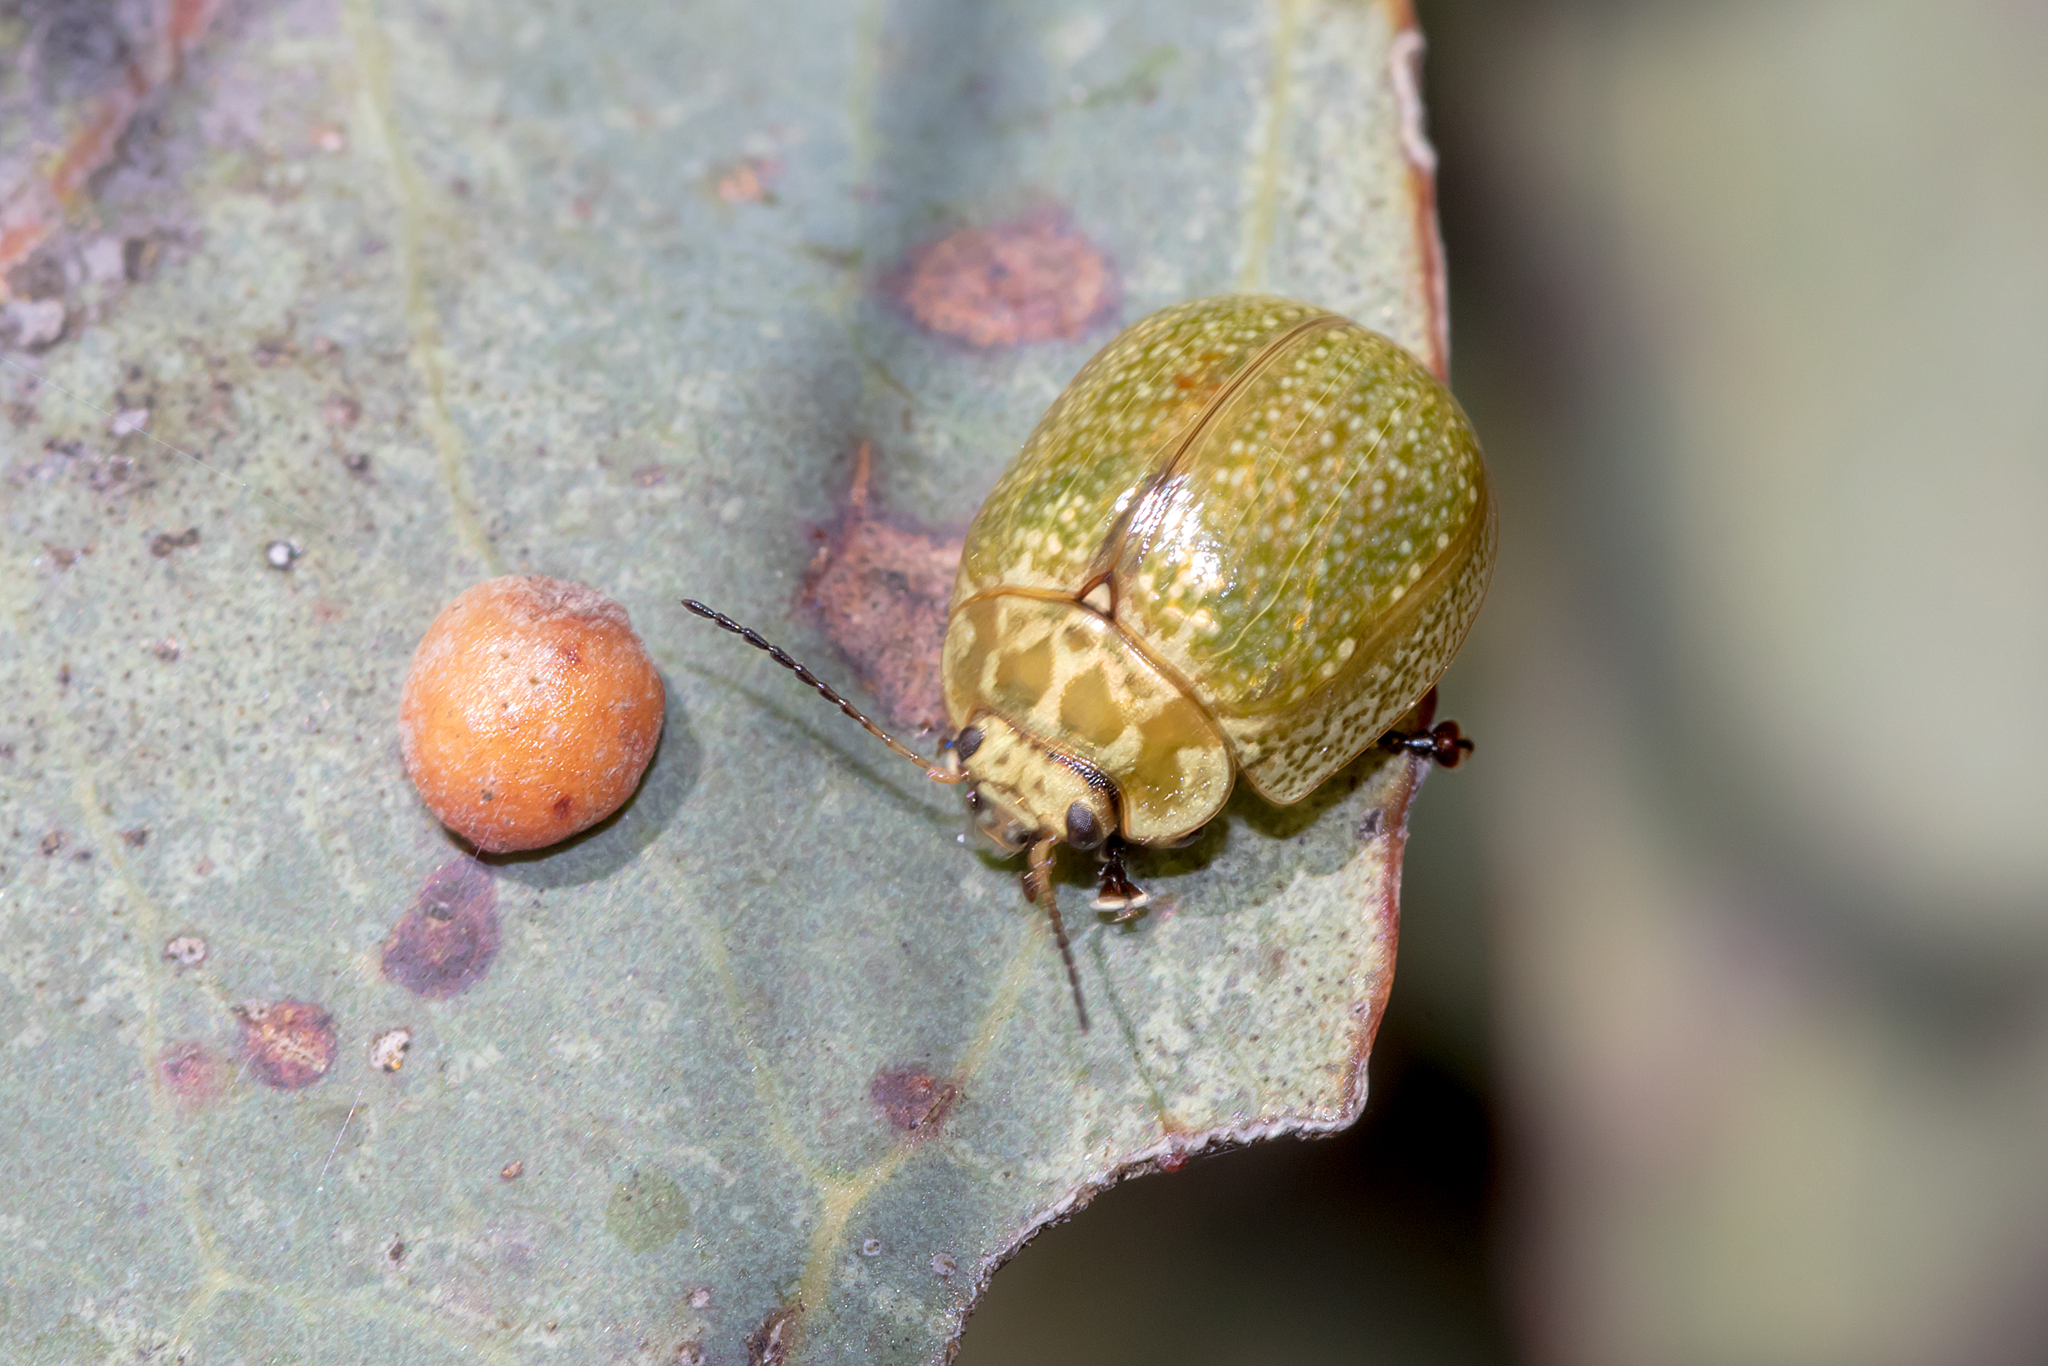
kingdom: Animalia
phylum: Arthropoda
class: Insecta
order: Coleoptera
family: Chrysomelidae
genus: Paropsisterna
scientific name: Paropsisterna cloelia
